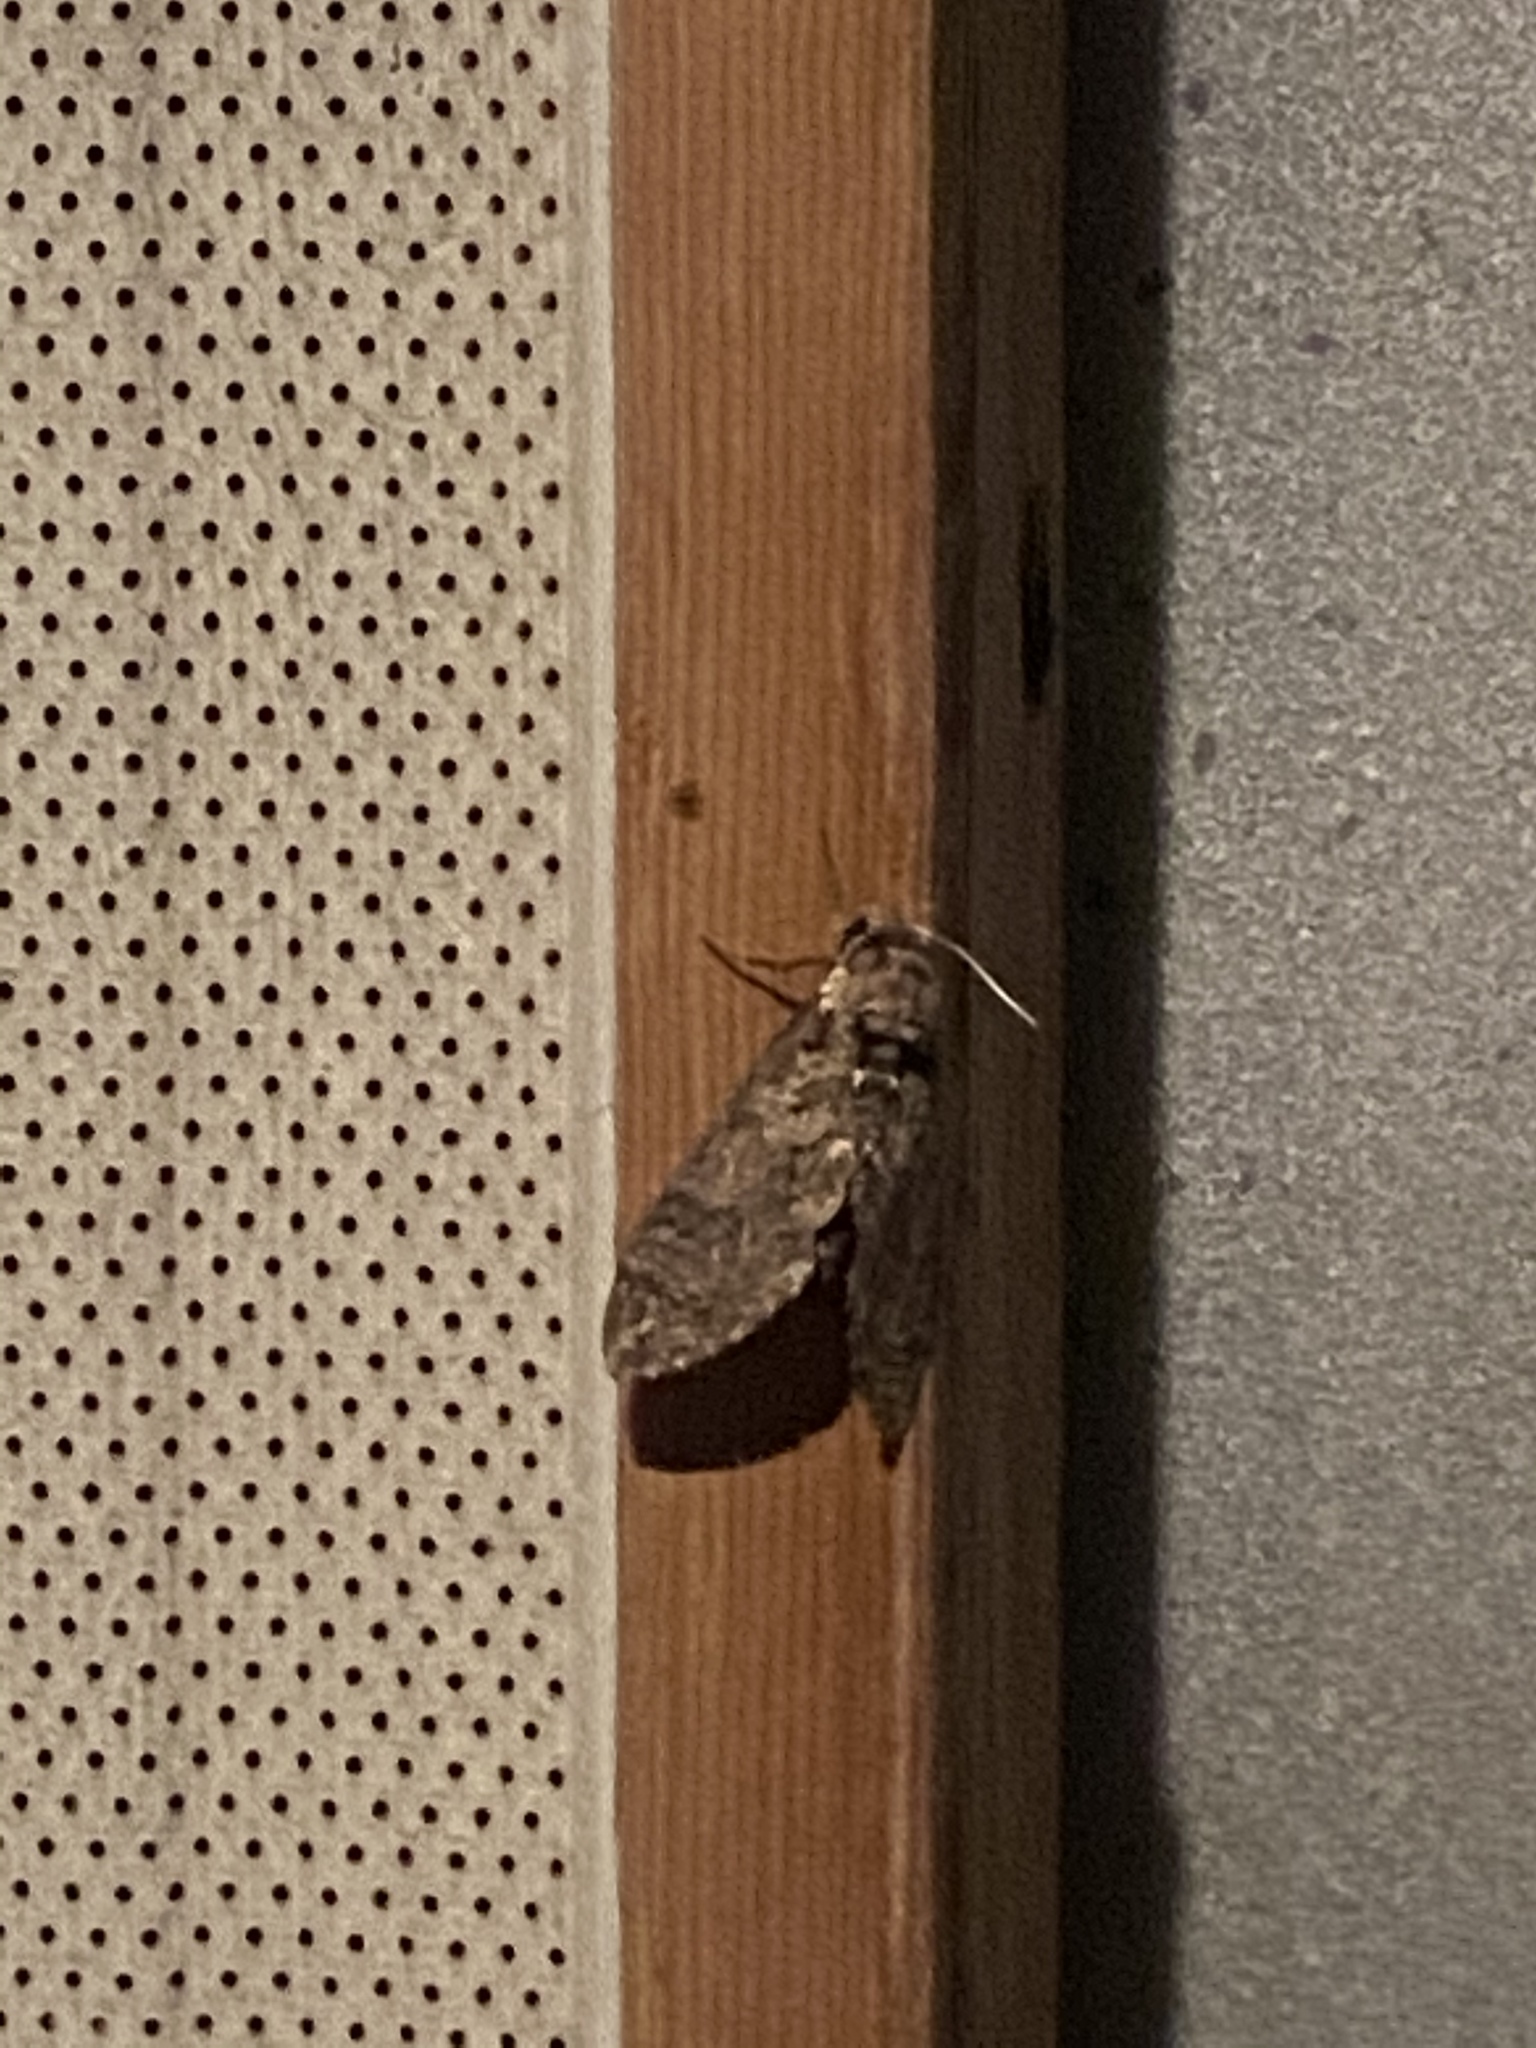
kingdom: Animalia
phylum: Arthropoda
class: Insecta
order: Lepidoptera
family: Sphingidae
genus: Manduca
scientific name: Manduca sexta
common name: Carolina sphinx
